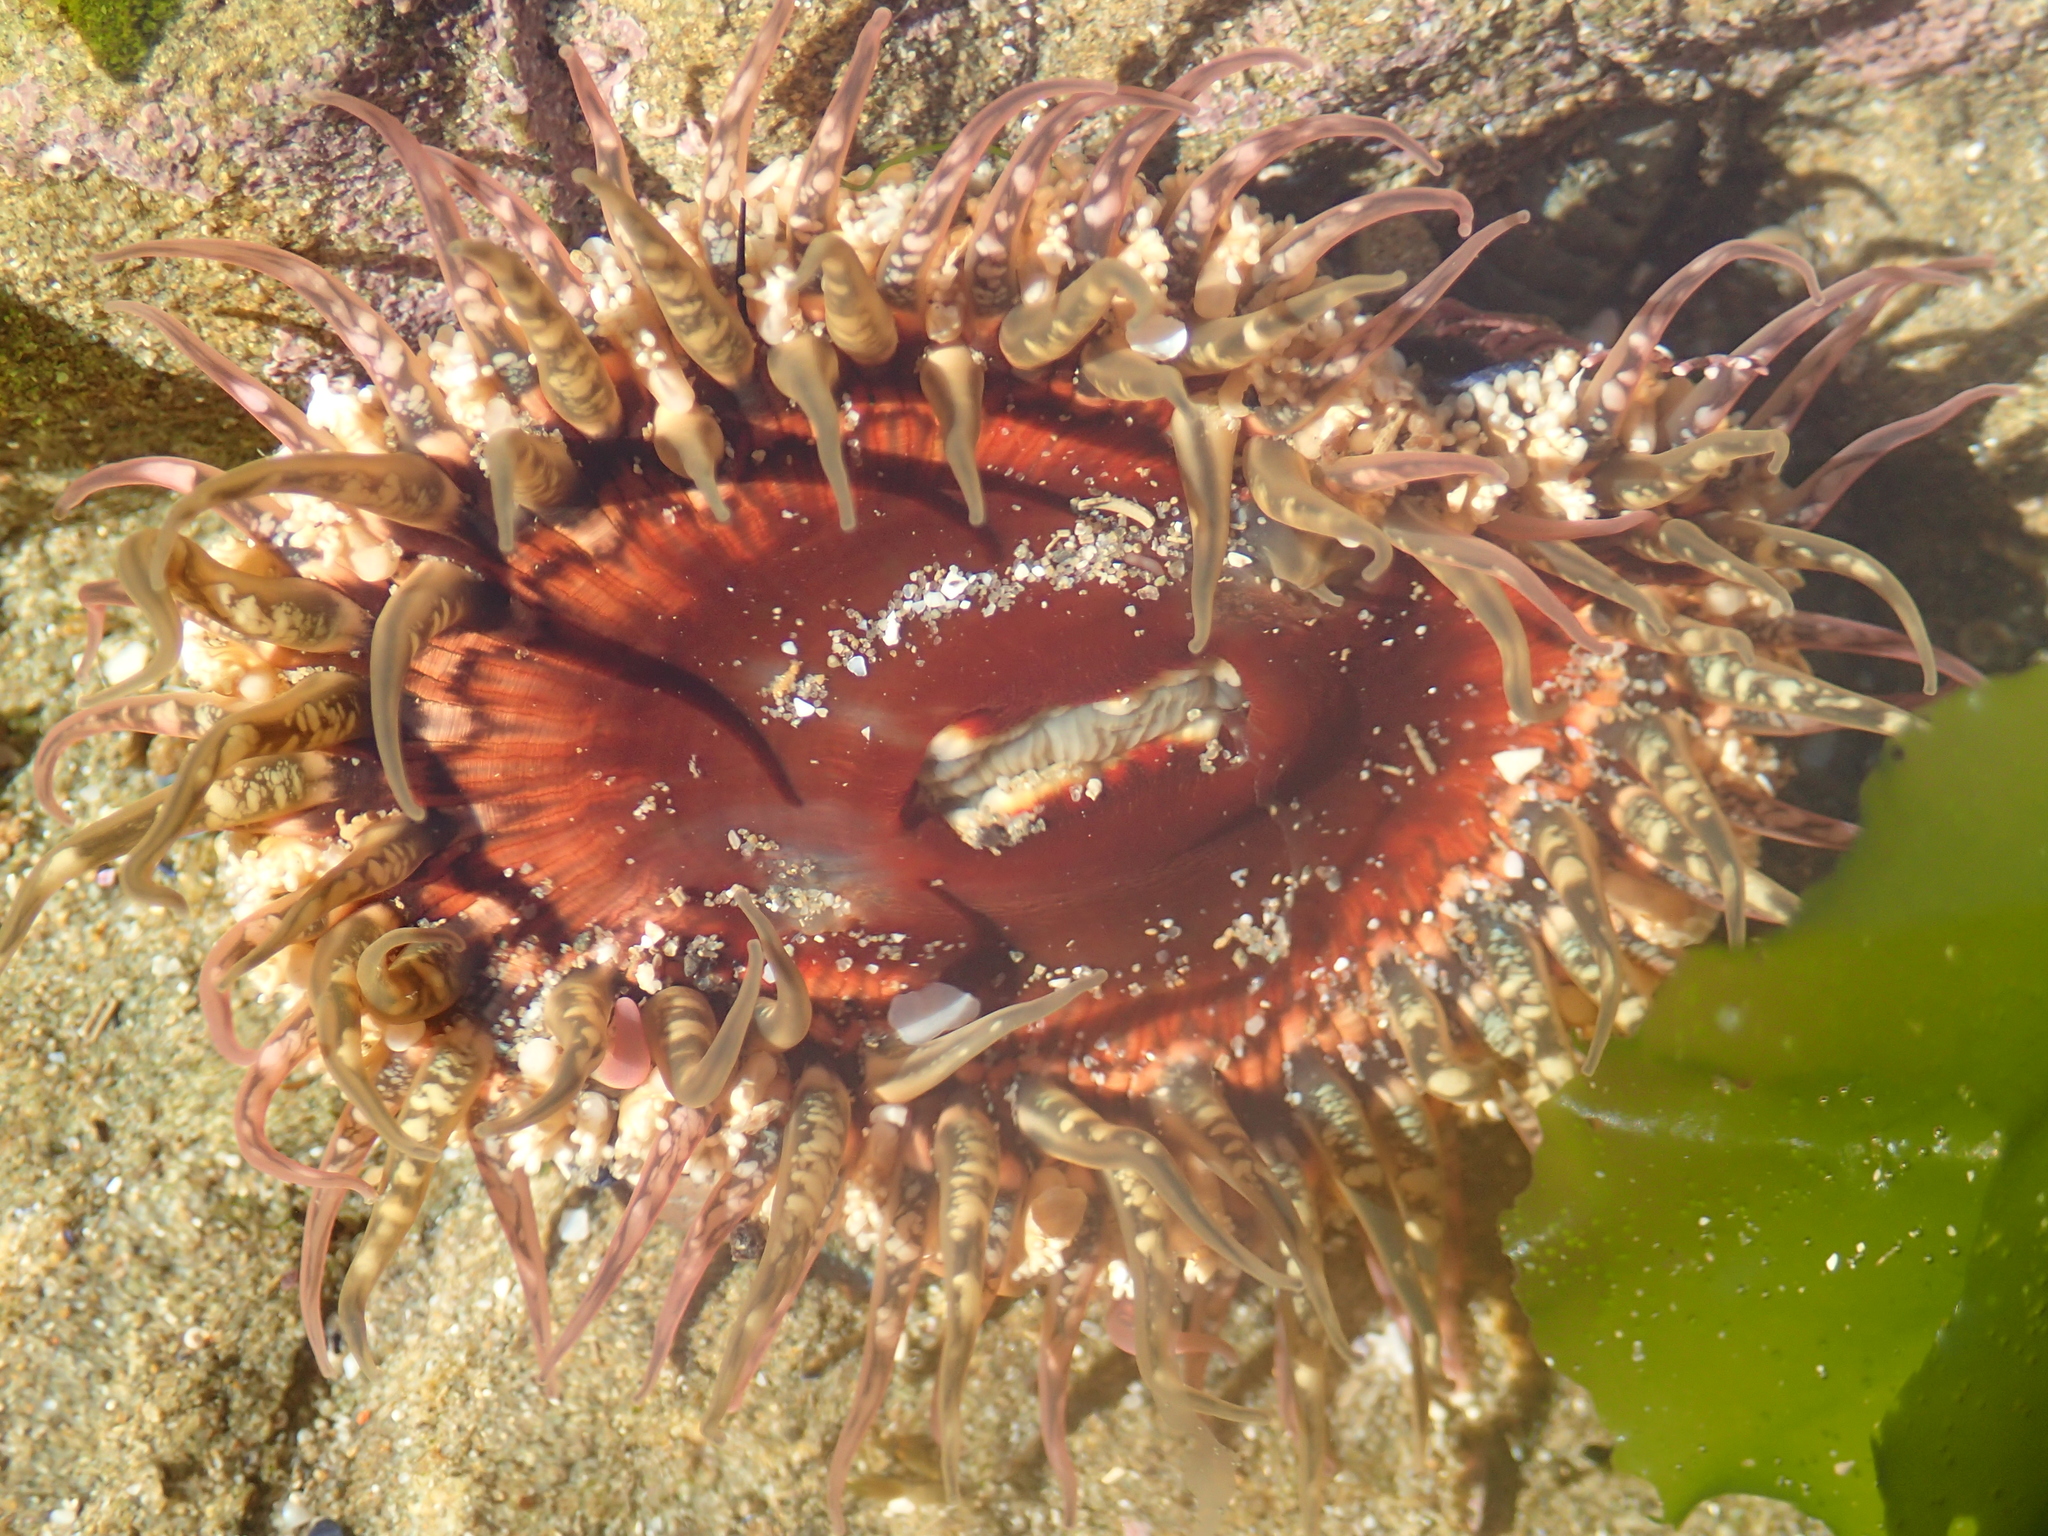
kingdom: Animalia
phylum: Cnidaria
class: Anthozoa
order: Actiniaria
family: Actiniidae
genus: Oulactis
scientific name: Oulactis muscosa
